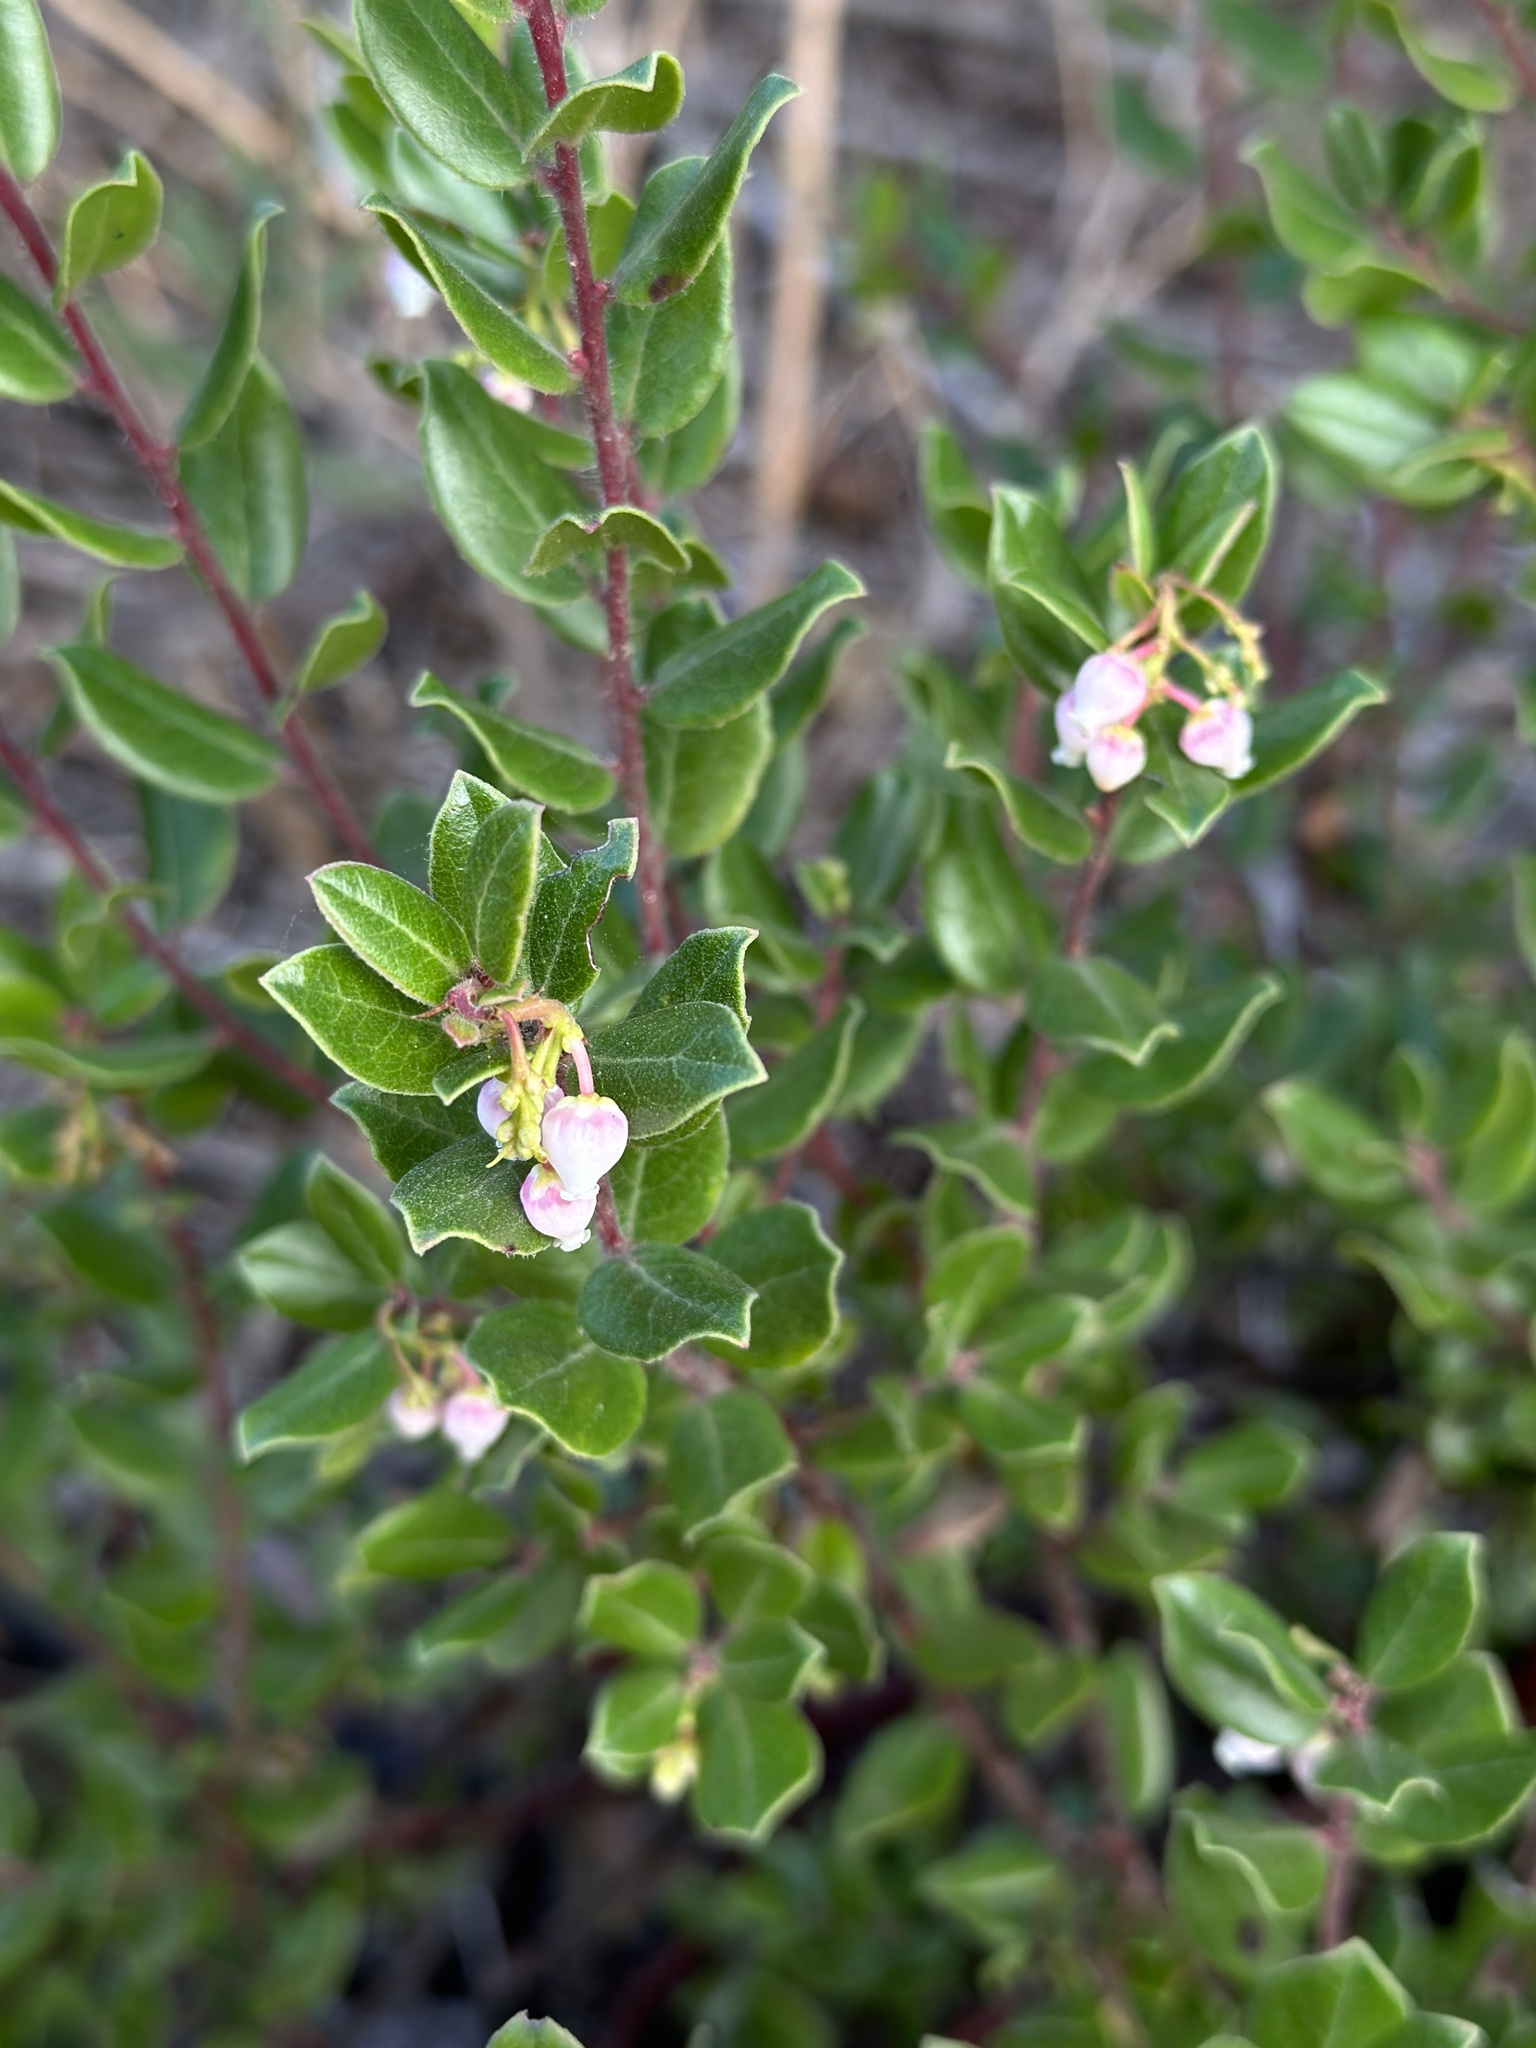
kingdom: Plantae
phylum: Tracheophyta
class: Magnoliopsida
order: Ericales
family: Ericaceae
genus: Arctostaphylos
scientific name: Arctostaphylos nummularia
